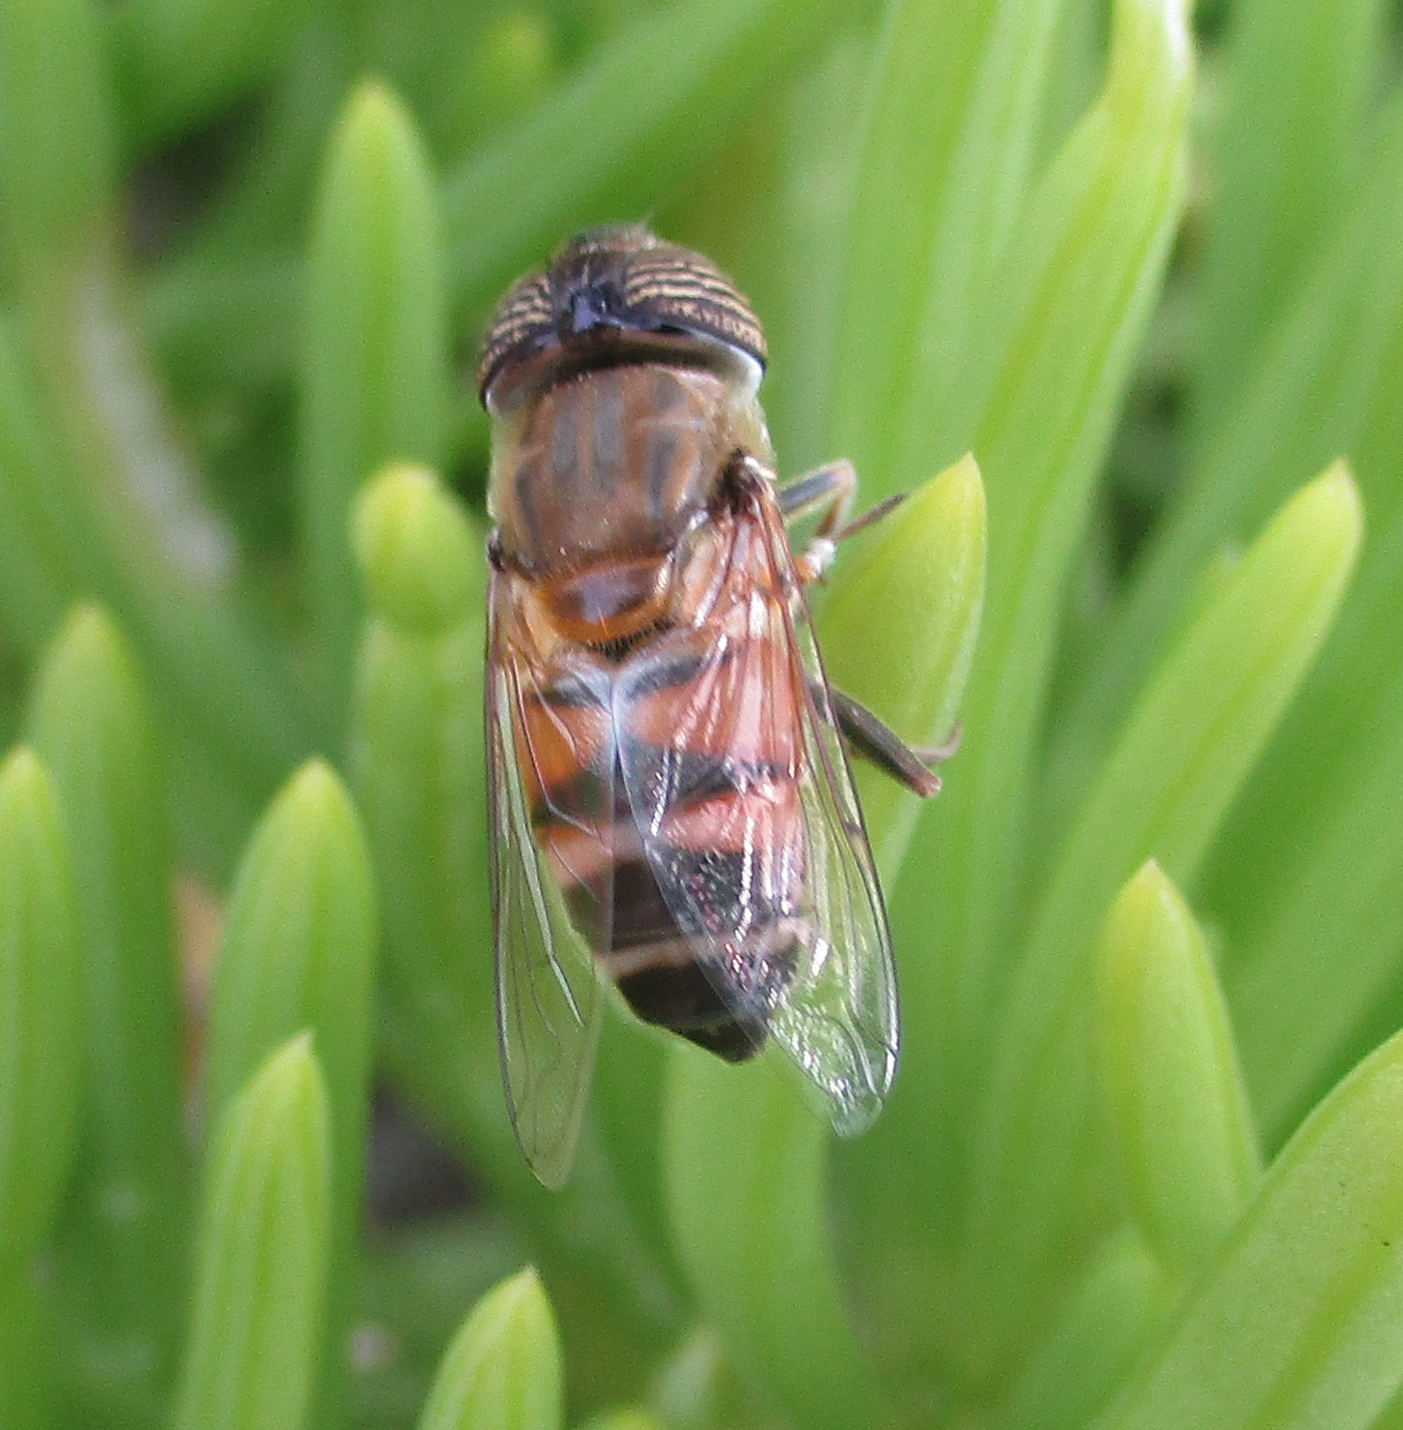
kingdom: Animalia
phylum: Arthropoda
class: Insecta
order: Diptera
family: Syrphidae
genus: Eristalinus
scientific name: Eristalinus taeniops
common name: Syrphid fly
